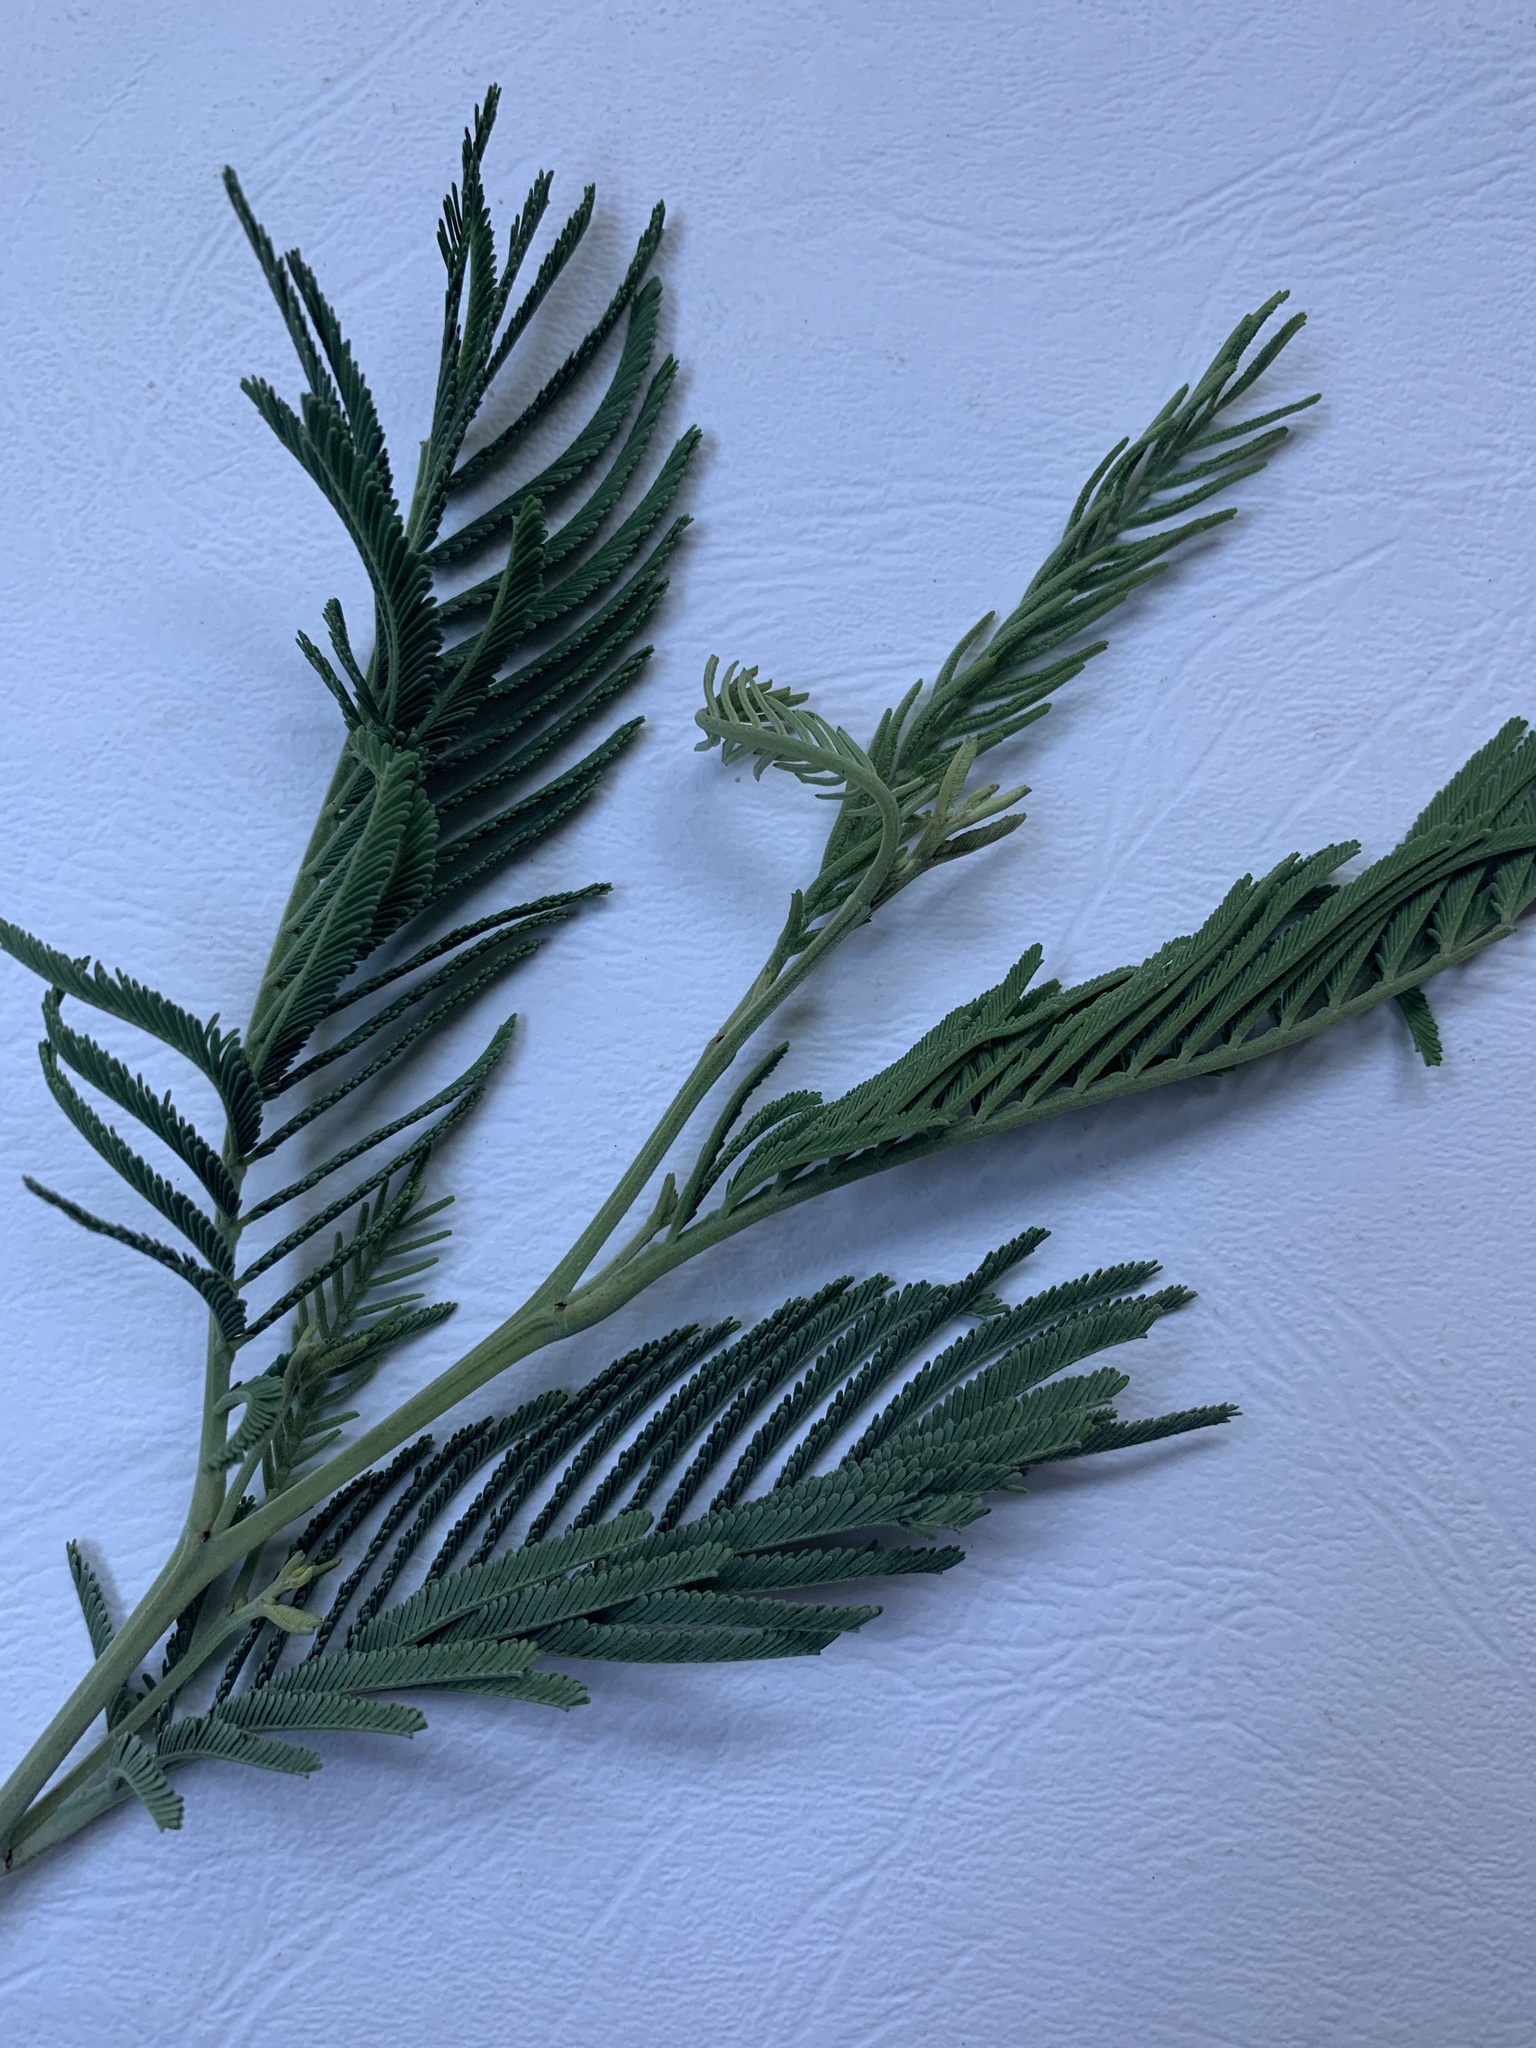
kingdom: Plantae
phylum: Tracheophyta
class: Magnoliopsida
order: Fabales
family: Fabaceae
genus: Acacia
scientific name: Acacia dealbata
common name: Silver wattle
